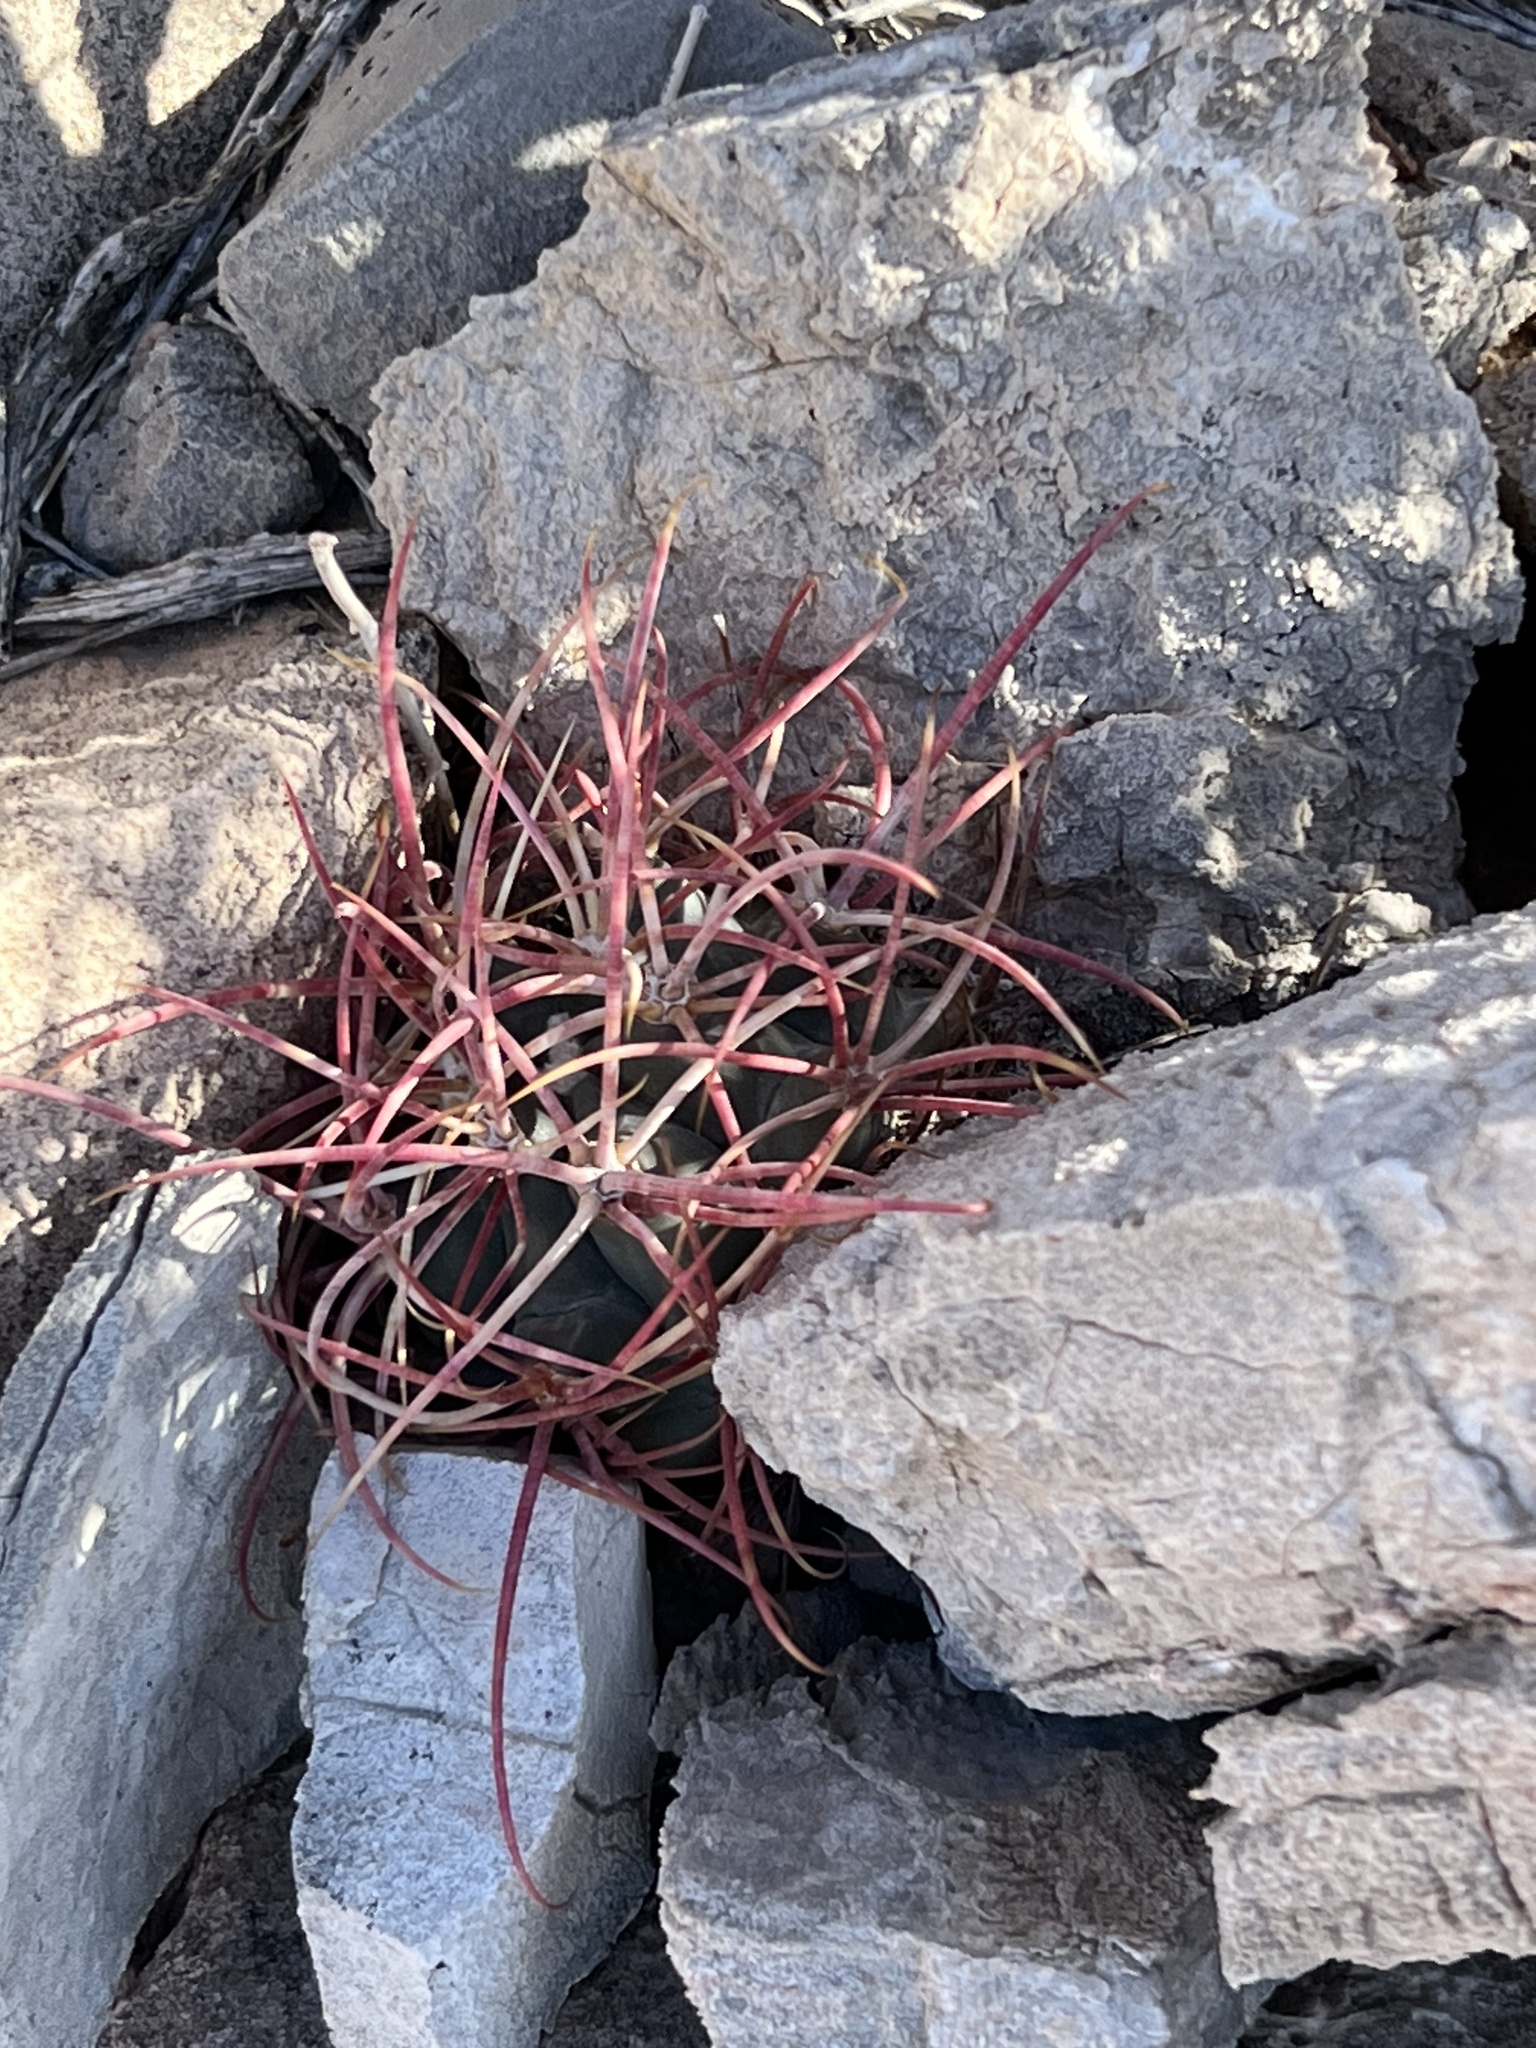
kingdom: Plantae
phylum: Tracheophyta
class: Magnoliopsida
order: Caryophyllales
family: Cactaceae
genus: Ferocactus
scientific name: Ferocactus cylindraceus
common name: California barrel cactus
